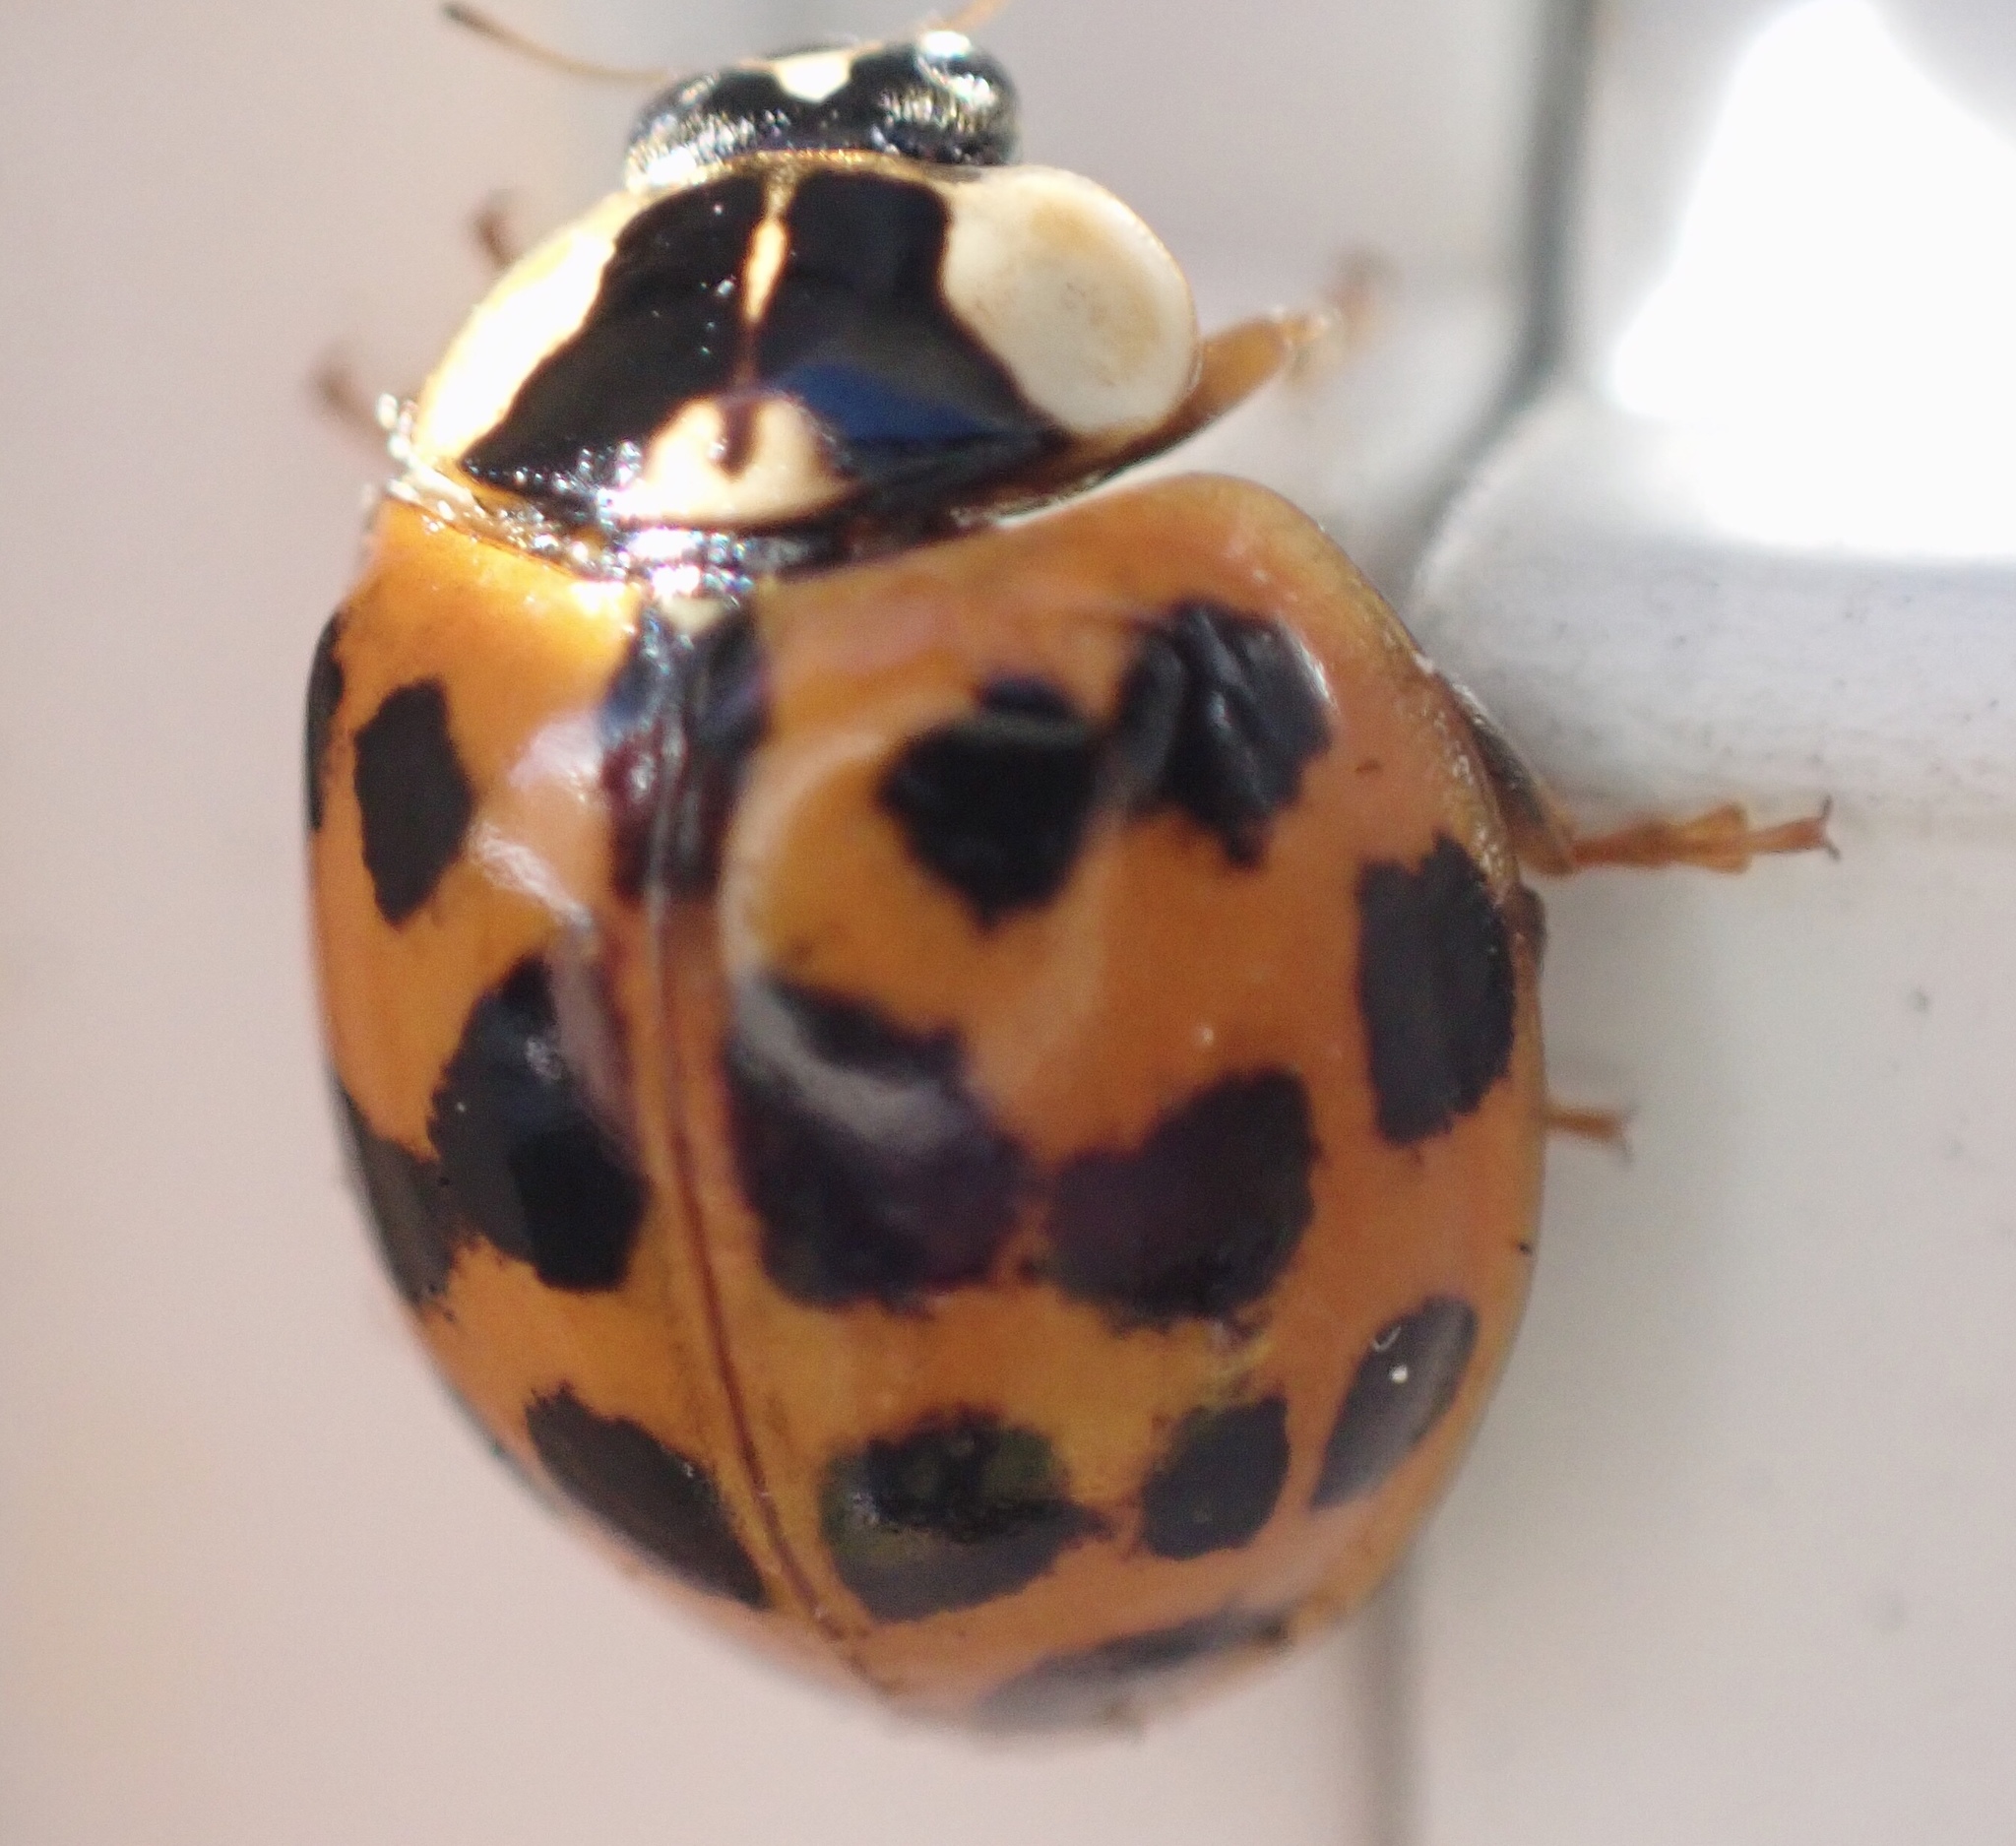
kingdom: Animalia
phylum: Arthropoda
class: Insecta
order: Coleoptera
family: Coccinellidae
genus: Harmonia
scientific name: Harmonia axyridis
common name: Harlequin ladybird
